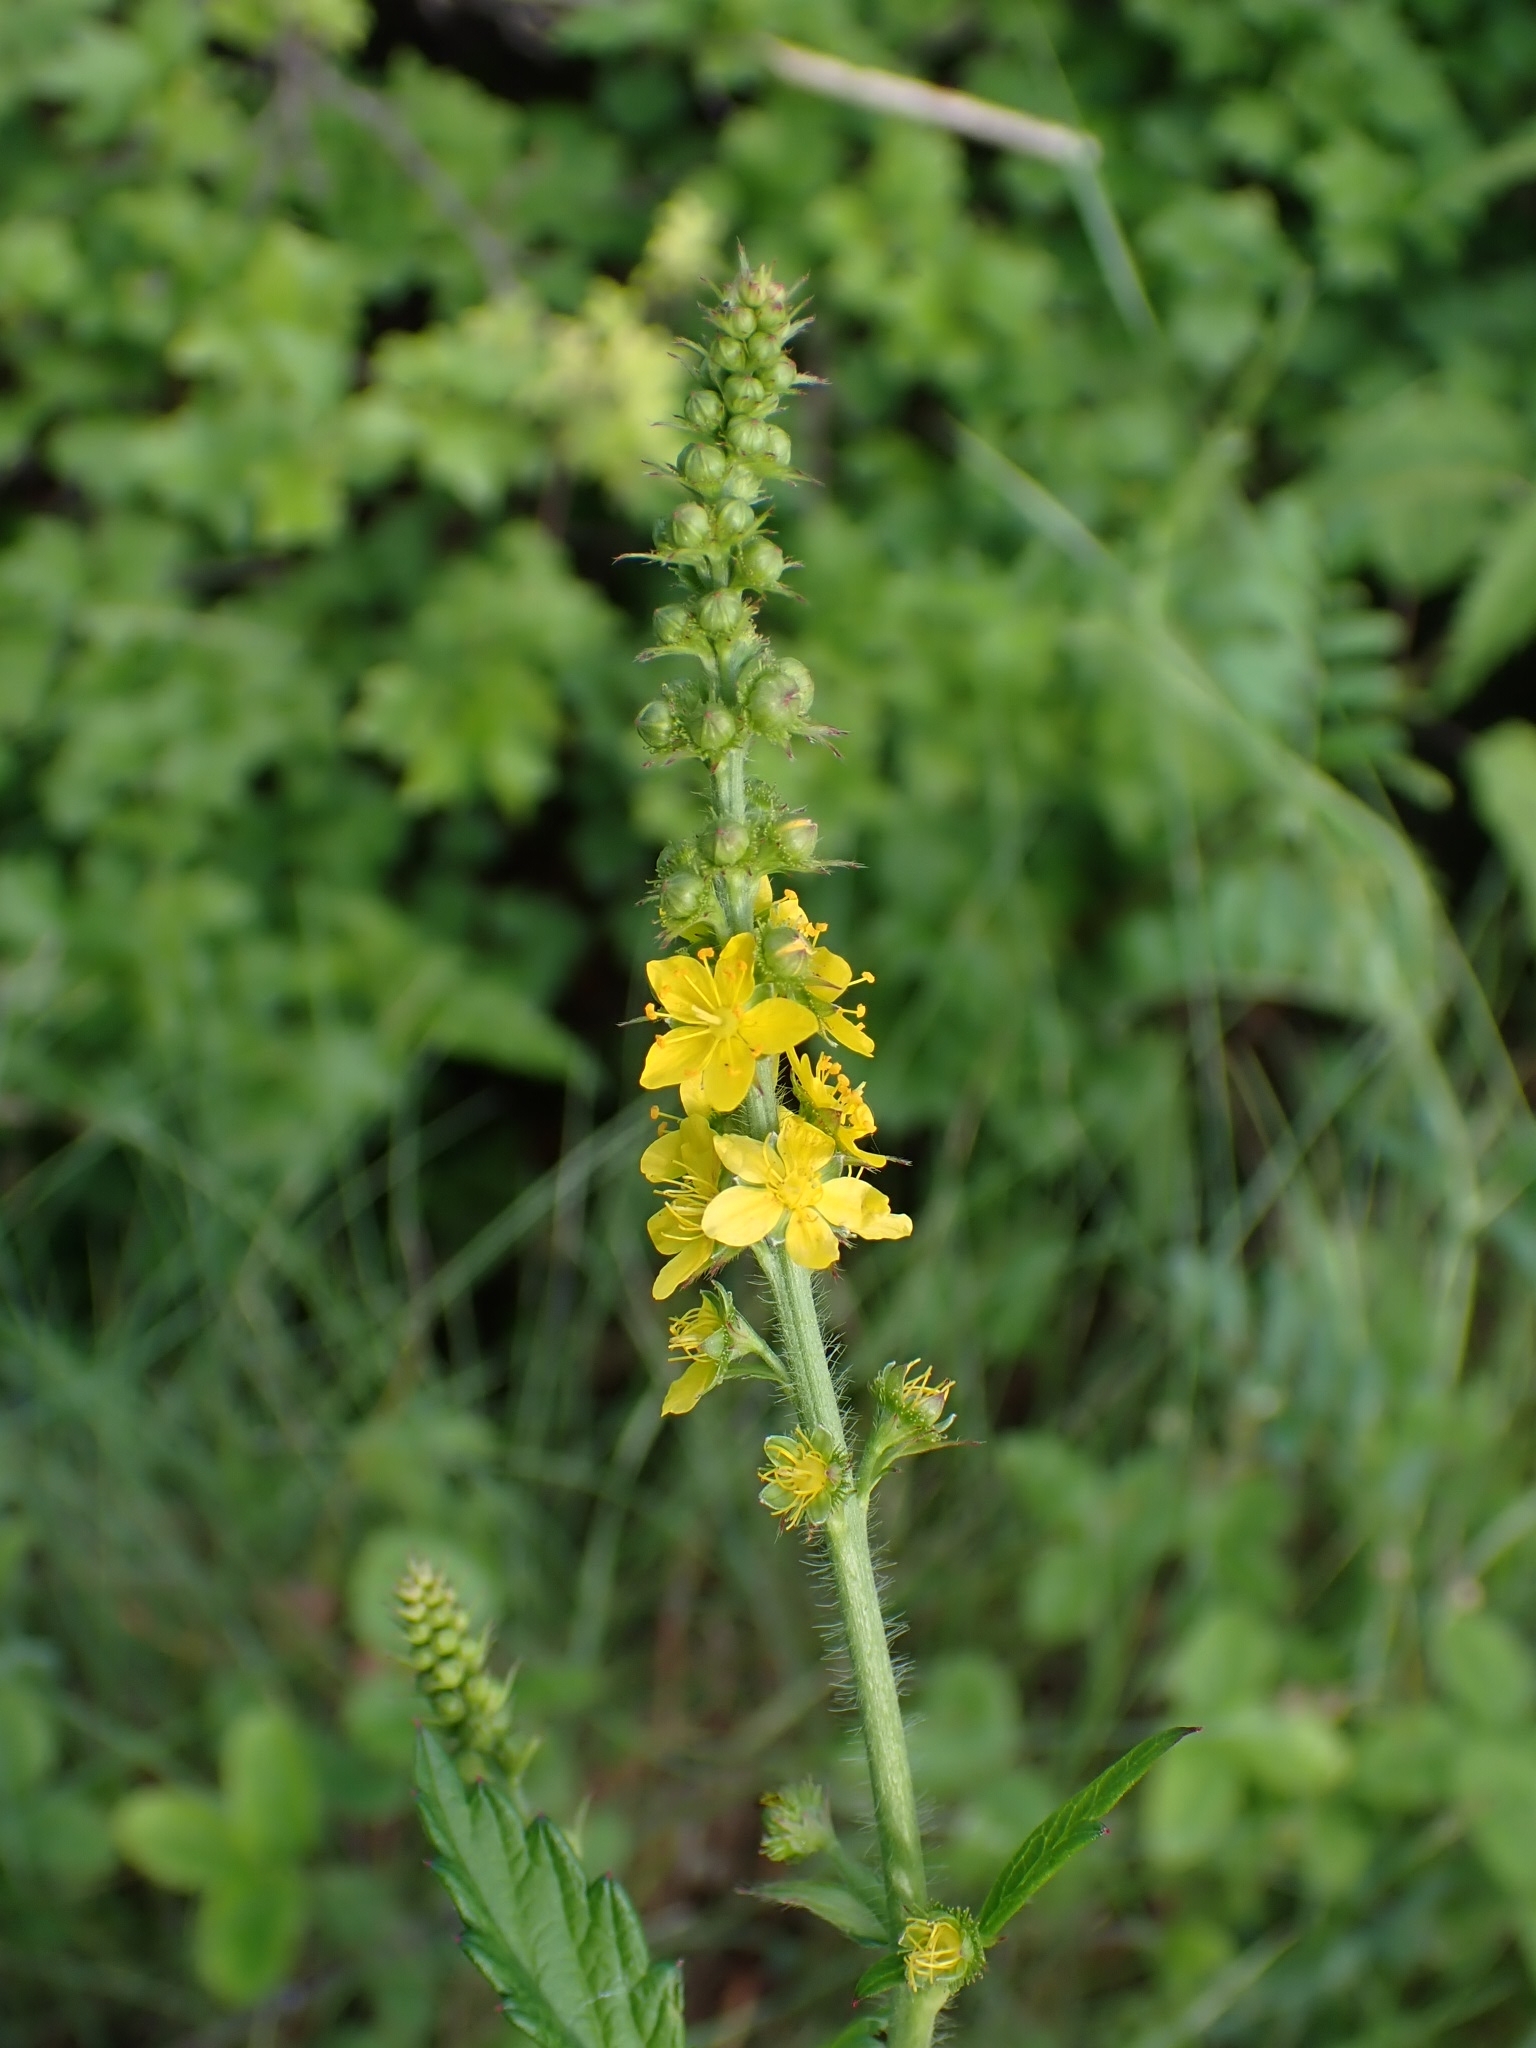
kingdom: Plantae
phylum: Tracheophyta
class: Magnoliopsida
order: Rosales
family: Rosaceae
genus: Agrimonia
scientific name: Agrimonia pilosa
